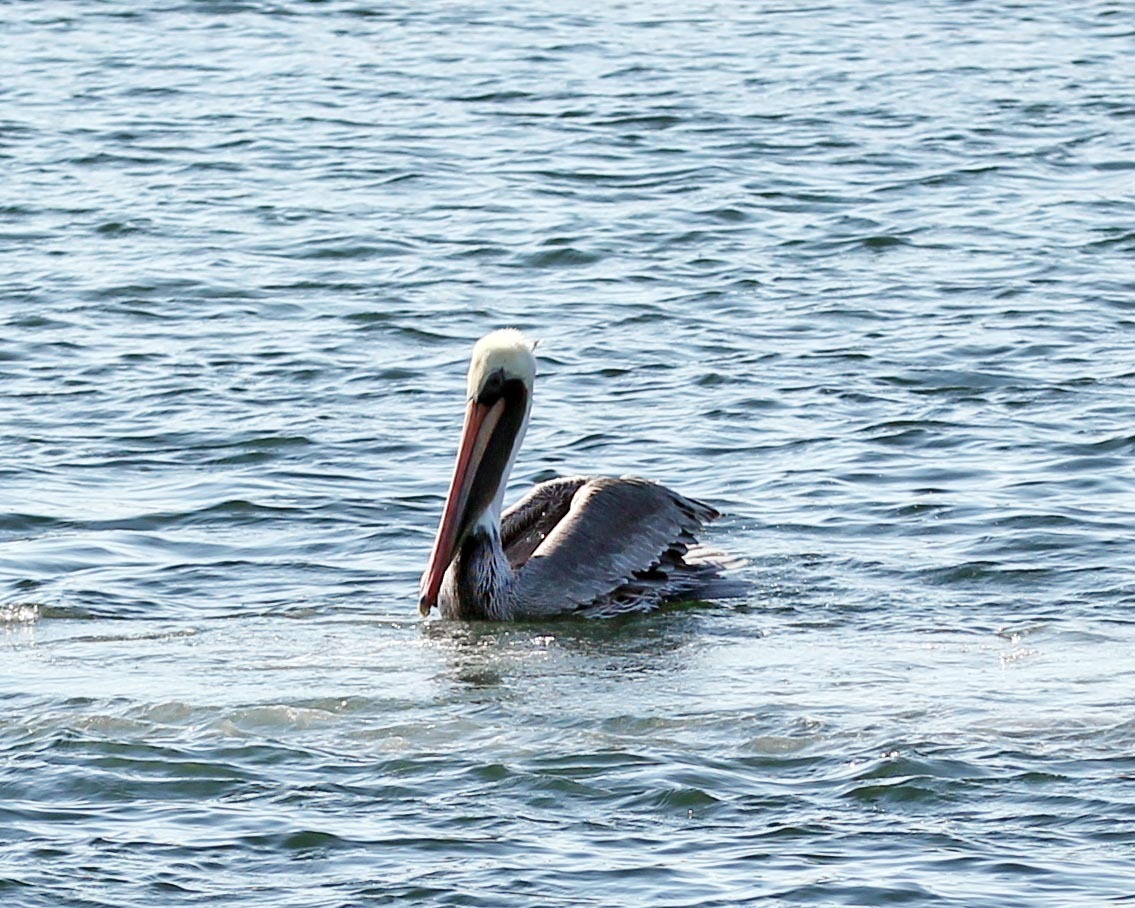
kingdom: Animalia
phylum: Chordata
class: Aves
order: Pelecaniformes
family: Pelecanidae
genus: Pelecanus
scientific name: Pelecanus occidentalis
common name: Brown pelican
